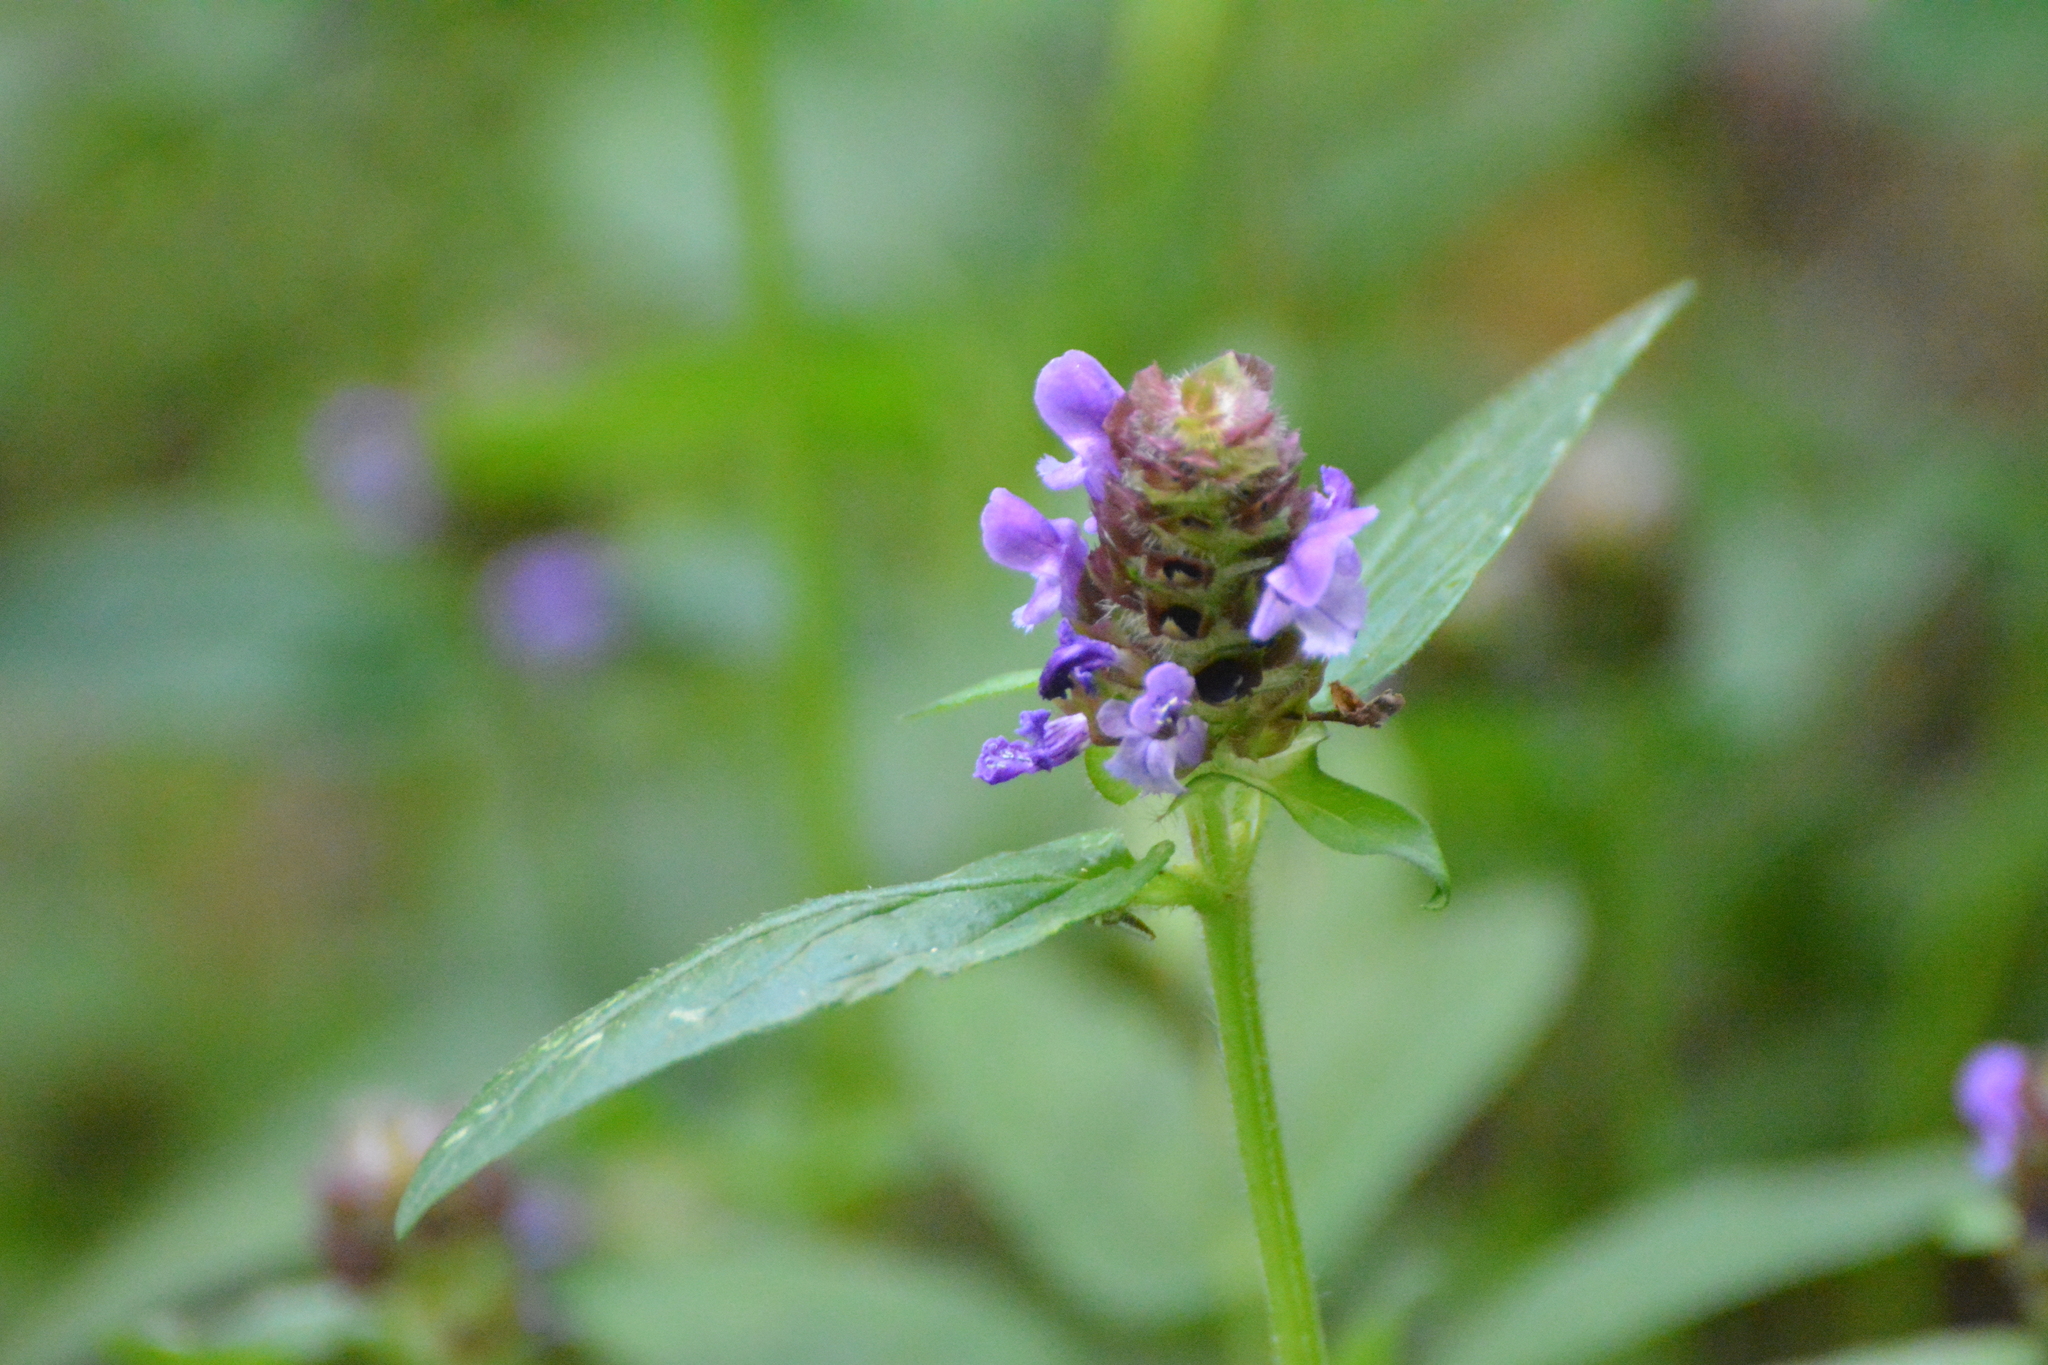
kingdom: Plantae
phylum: Tracheophyta
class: Magnoliopsida
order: Lamiales
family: Lamiaceae
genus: Prunella
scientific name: Prunella vulgaris
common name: Heal-all
